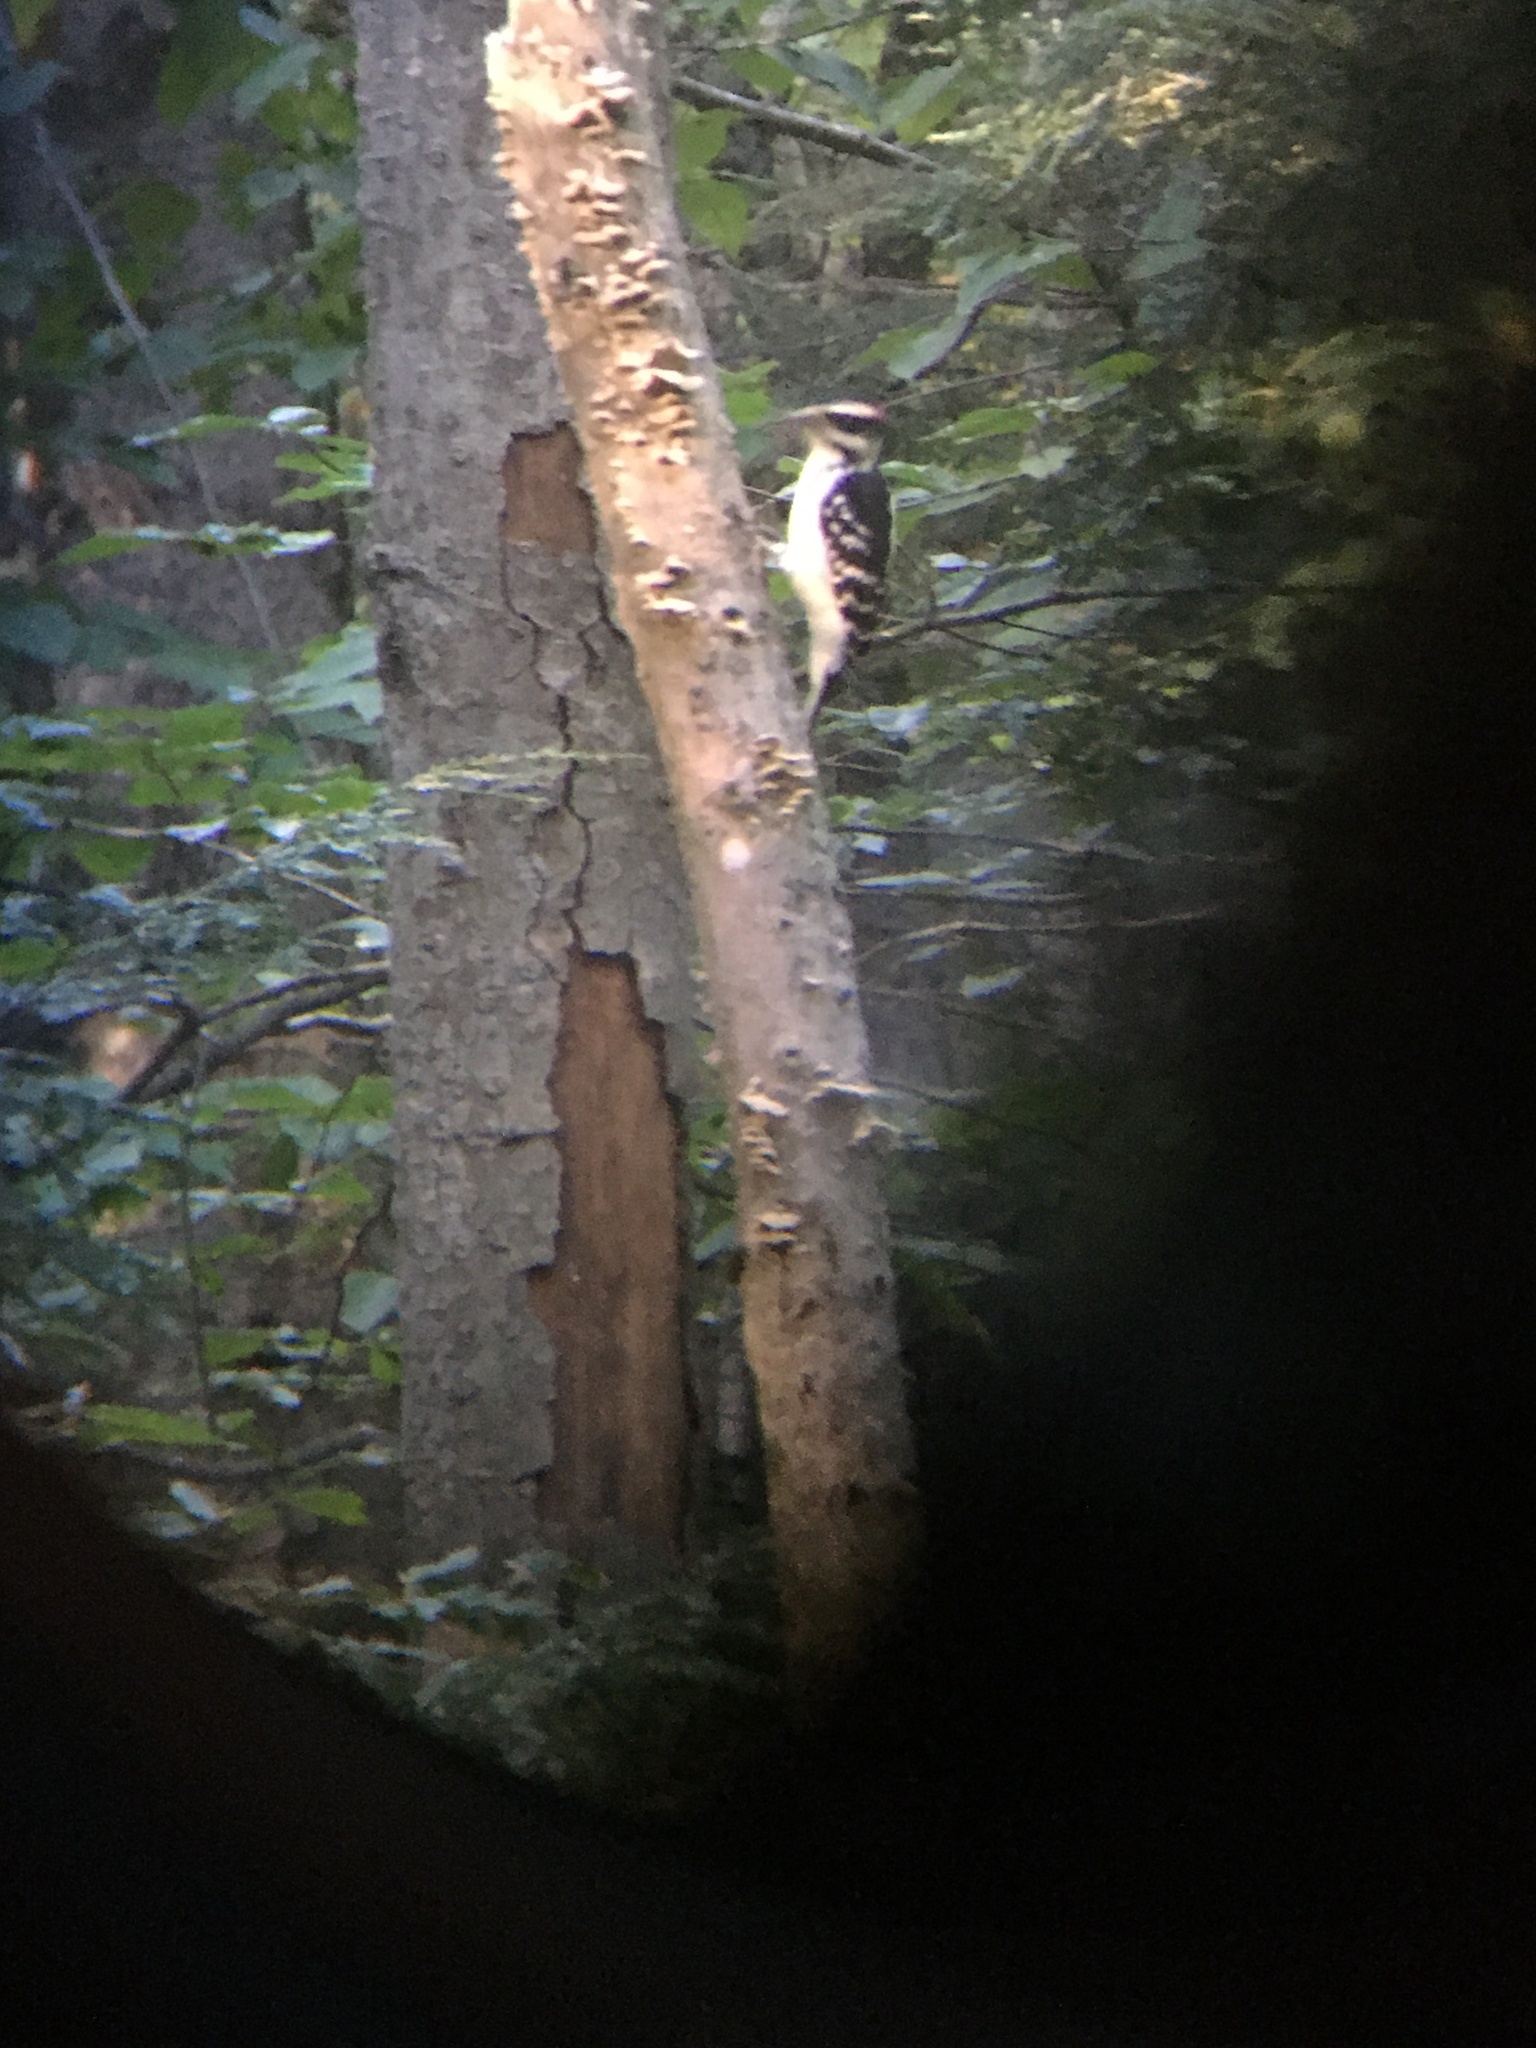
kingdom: Animalia
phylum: Chordata
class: Aves
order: Piciformes
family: Picidae
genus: Leuconotopicus
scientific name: Leuconotopicus villosus
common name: Hairy woodpecker
